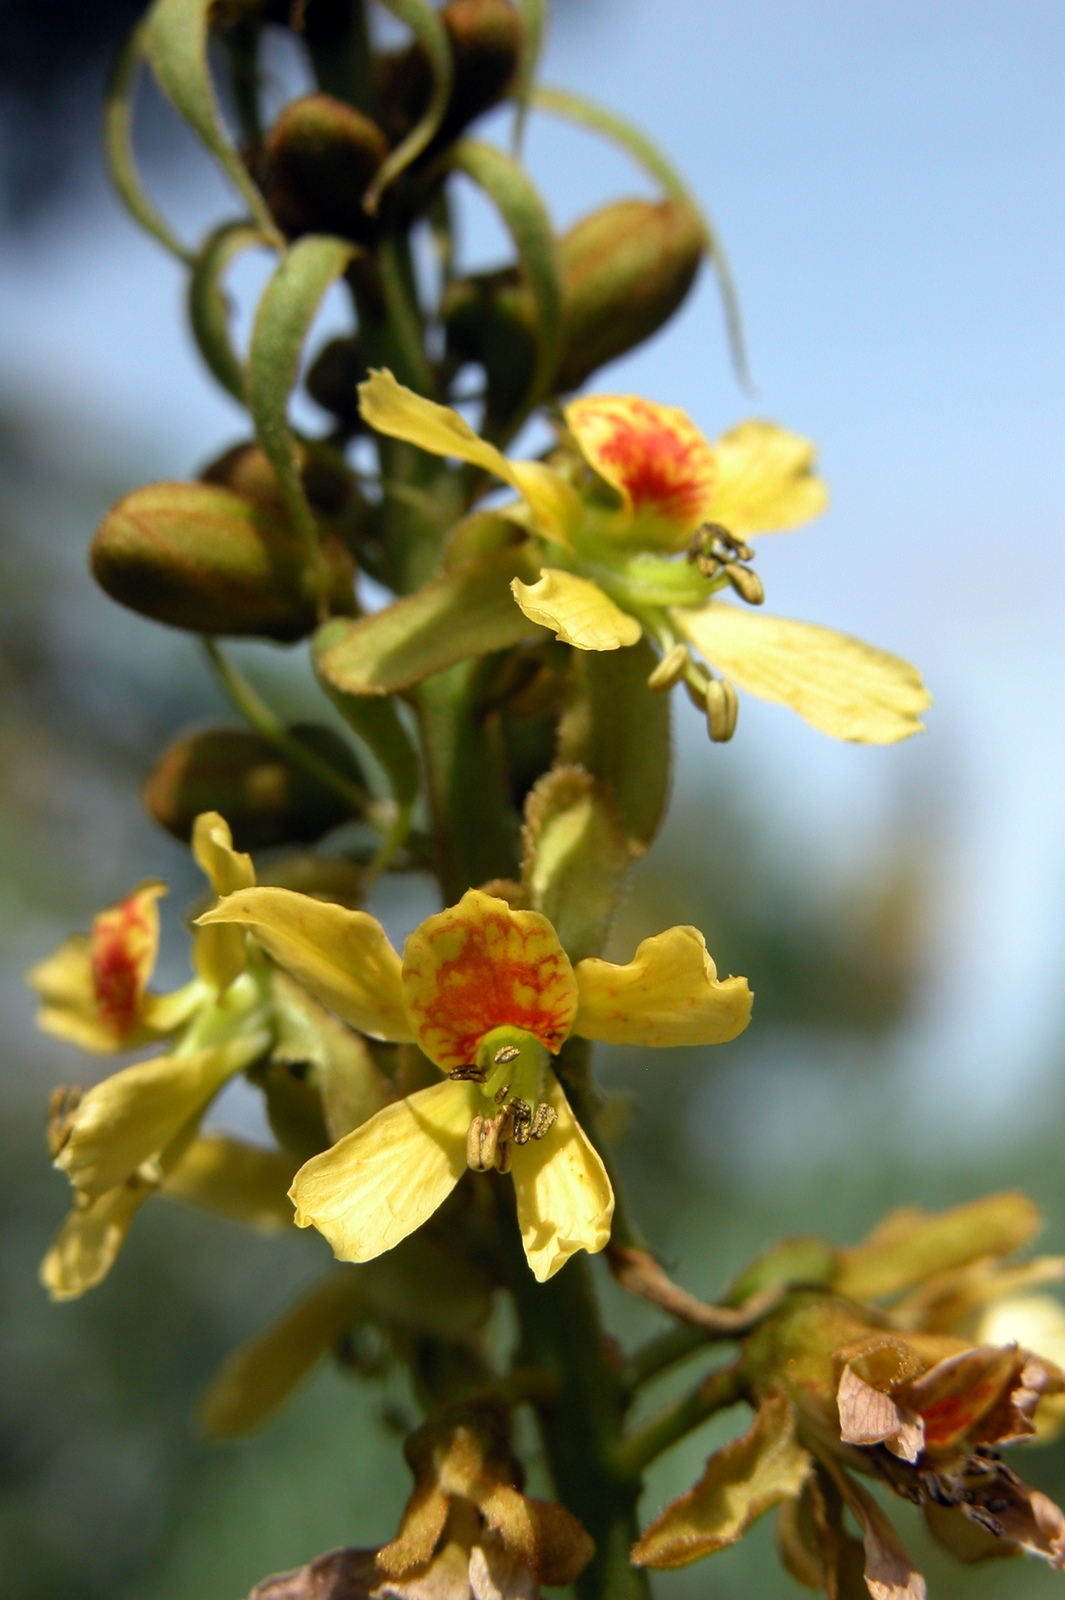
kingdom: Plantae
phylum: Tracheophyta
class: Magnoliopsida
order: Fabales
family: Fabaceae
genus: Guilandina
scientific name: Guilandina bonduc
